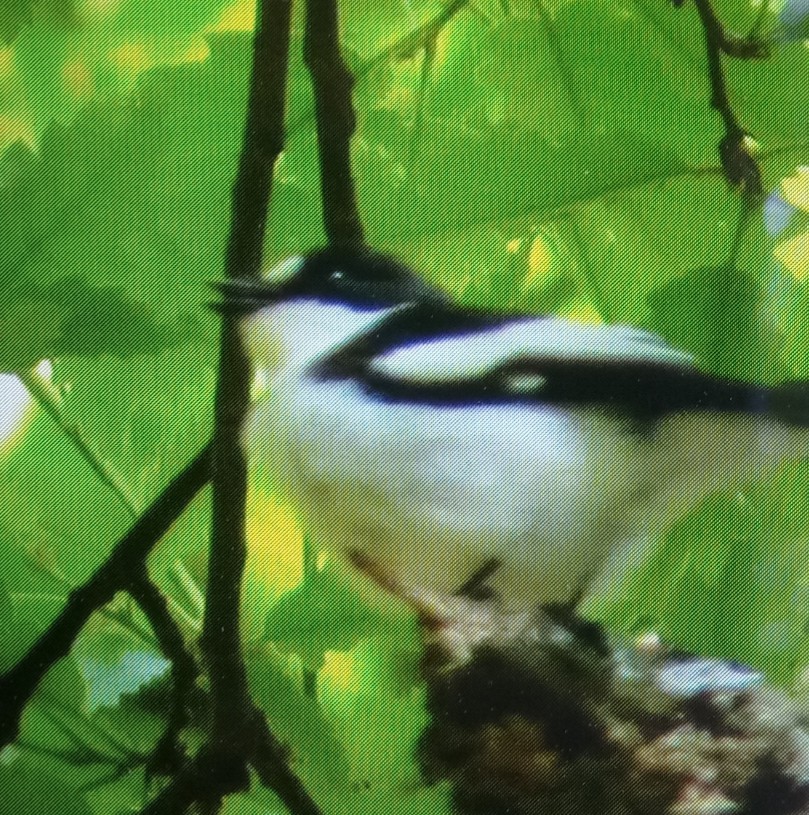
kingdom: Animalia
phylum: Chordata
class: Aves
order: Passeriformes
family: Muscicapidae
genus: Ficedula
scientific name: Ficedula speculigera
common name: Atlas pied flycatcher
